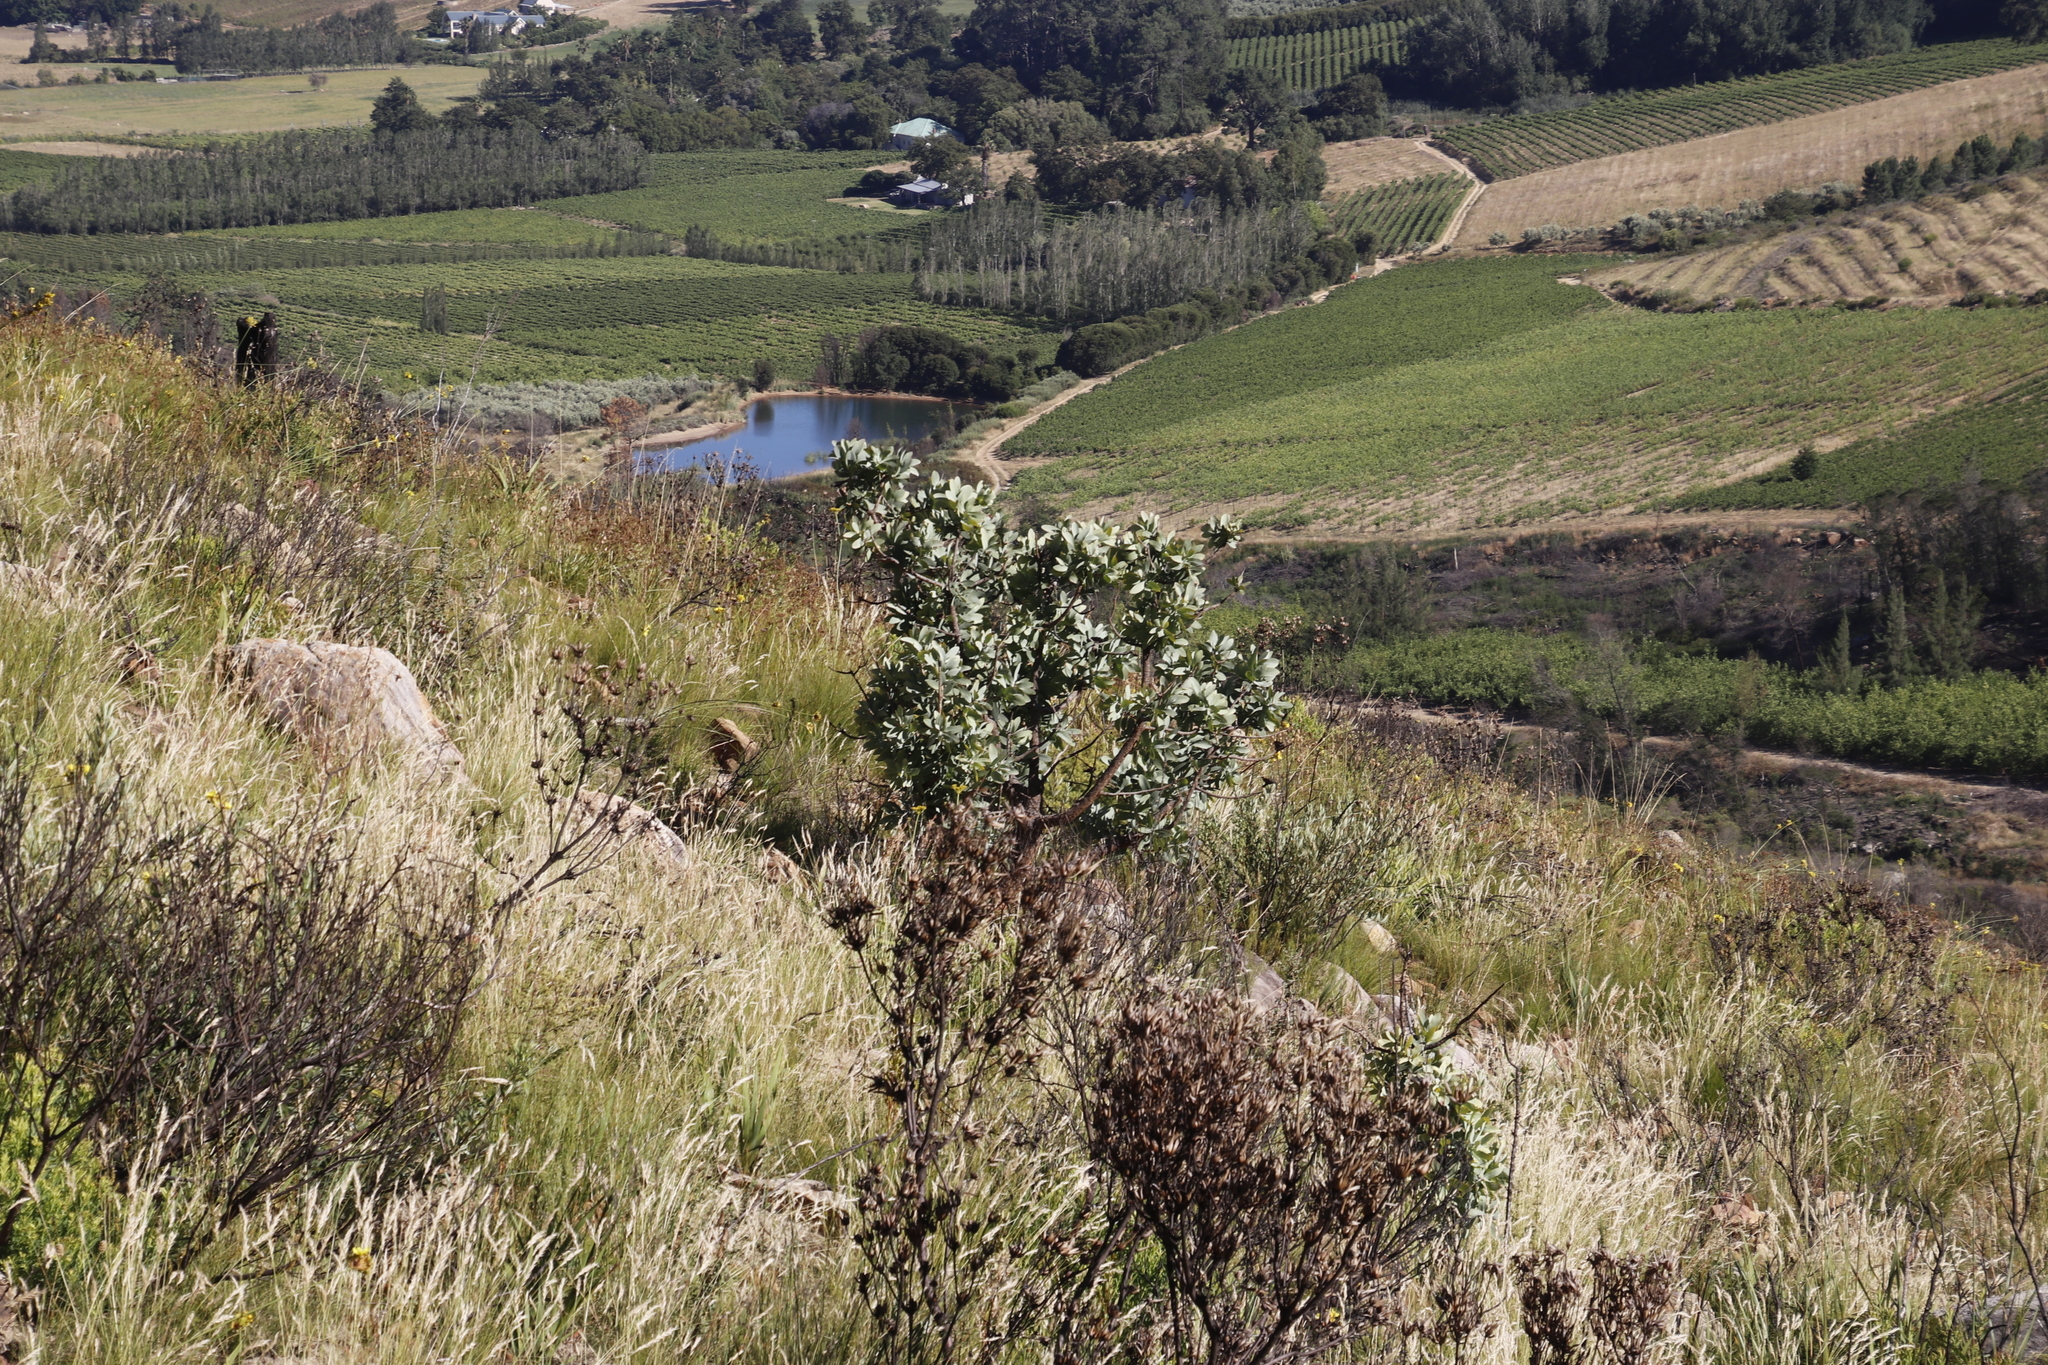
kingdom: Plantae
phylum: Tracheophyta
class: Magnoliopsida
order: Proteales
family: Proteaceae
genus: Protea
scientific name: Protea nitida
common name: Tree protea
